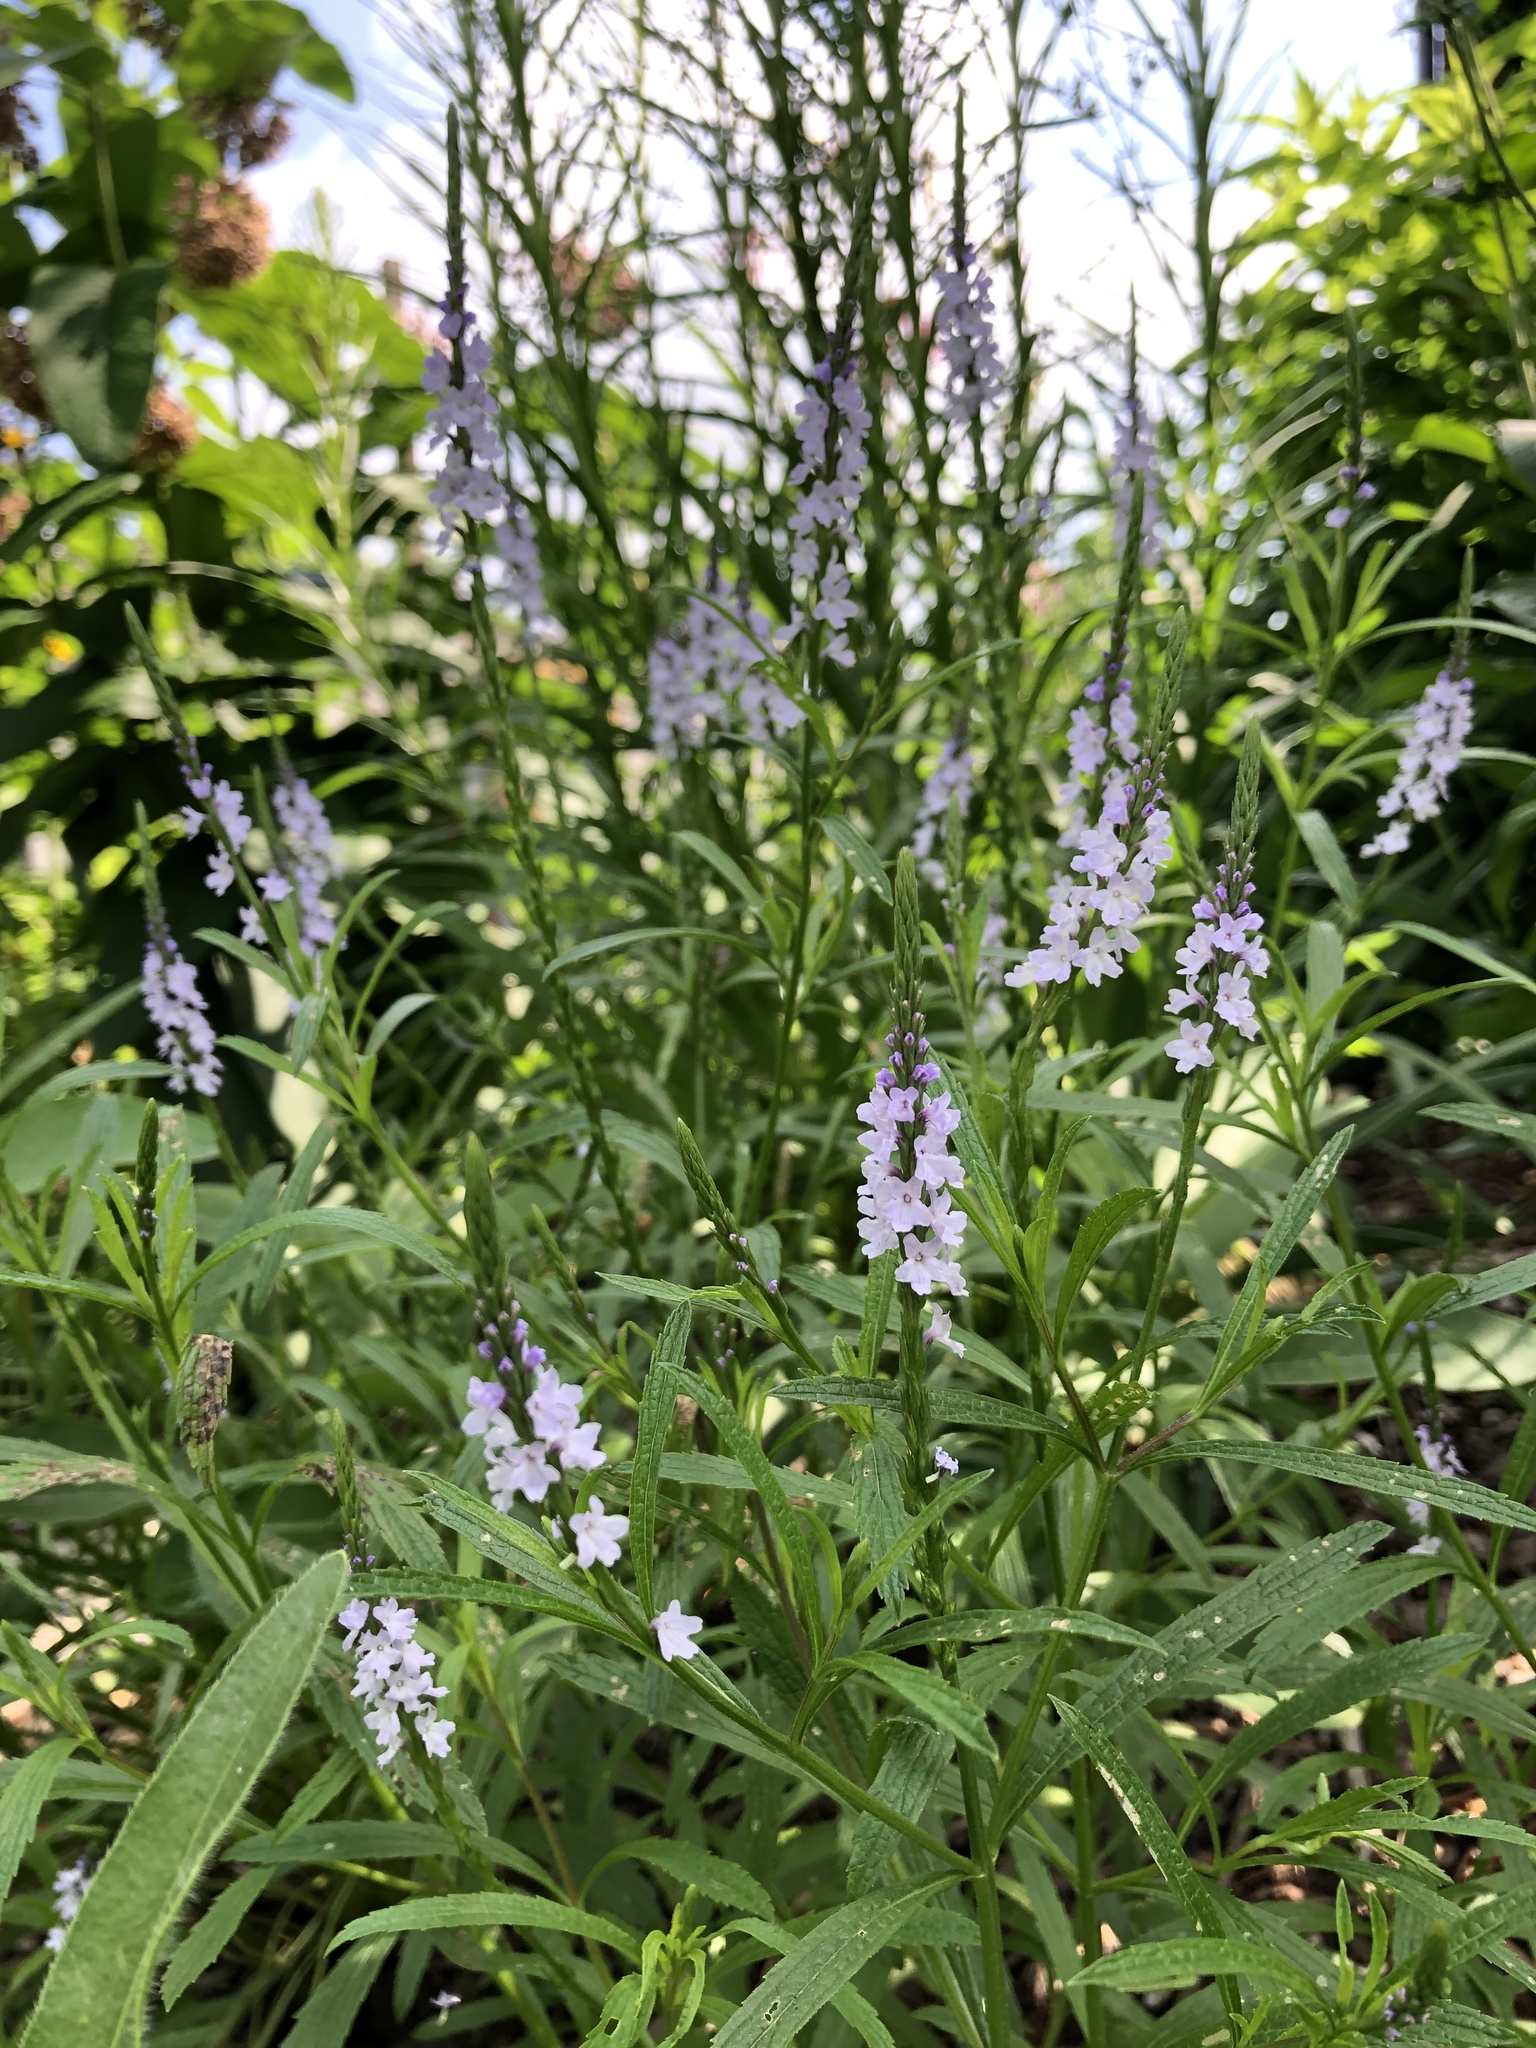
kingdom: Plantae
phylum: Tracheophyta
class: Magnoliopsida
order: Lamiales
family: Verbenaceae
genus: Verbena
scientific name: Verbena simplex
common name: Narrow-leaf vervain
